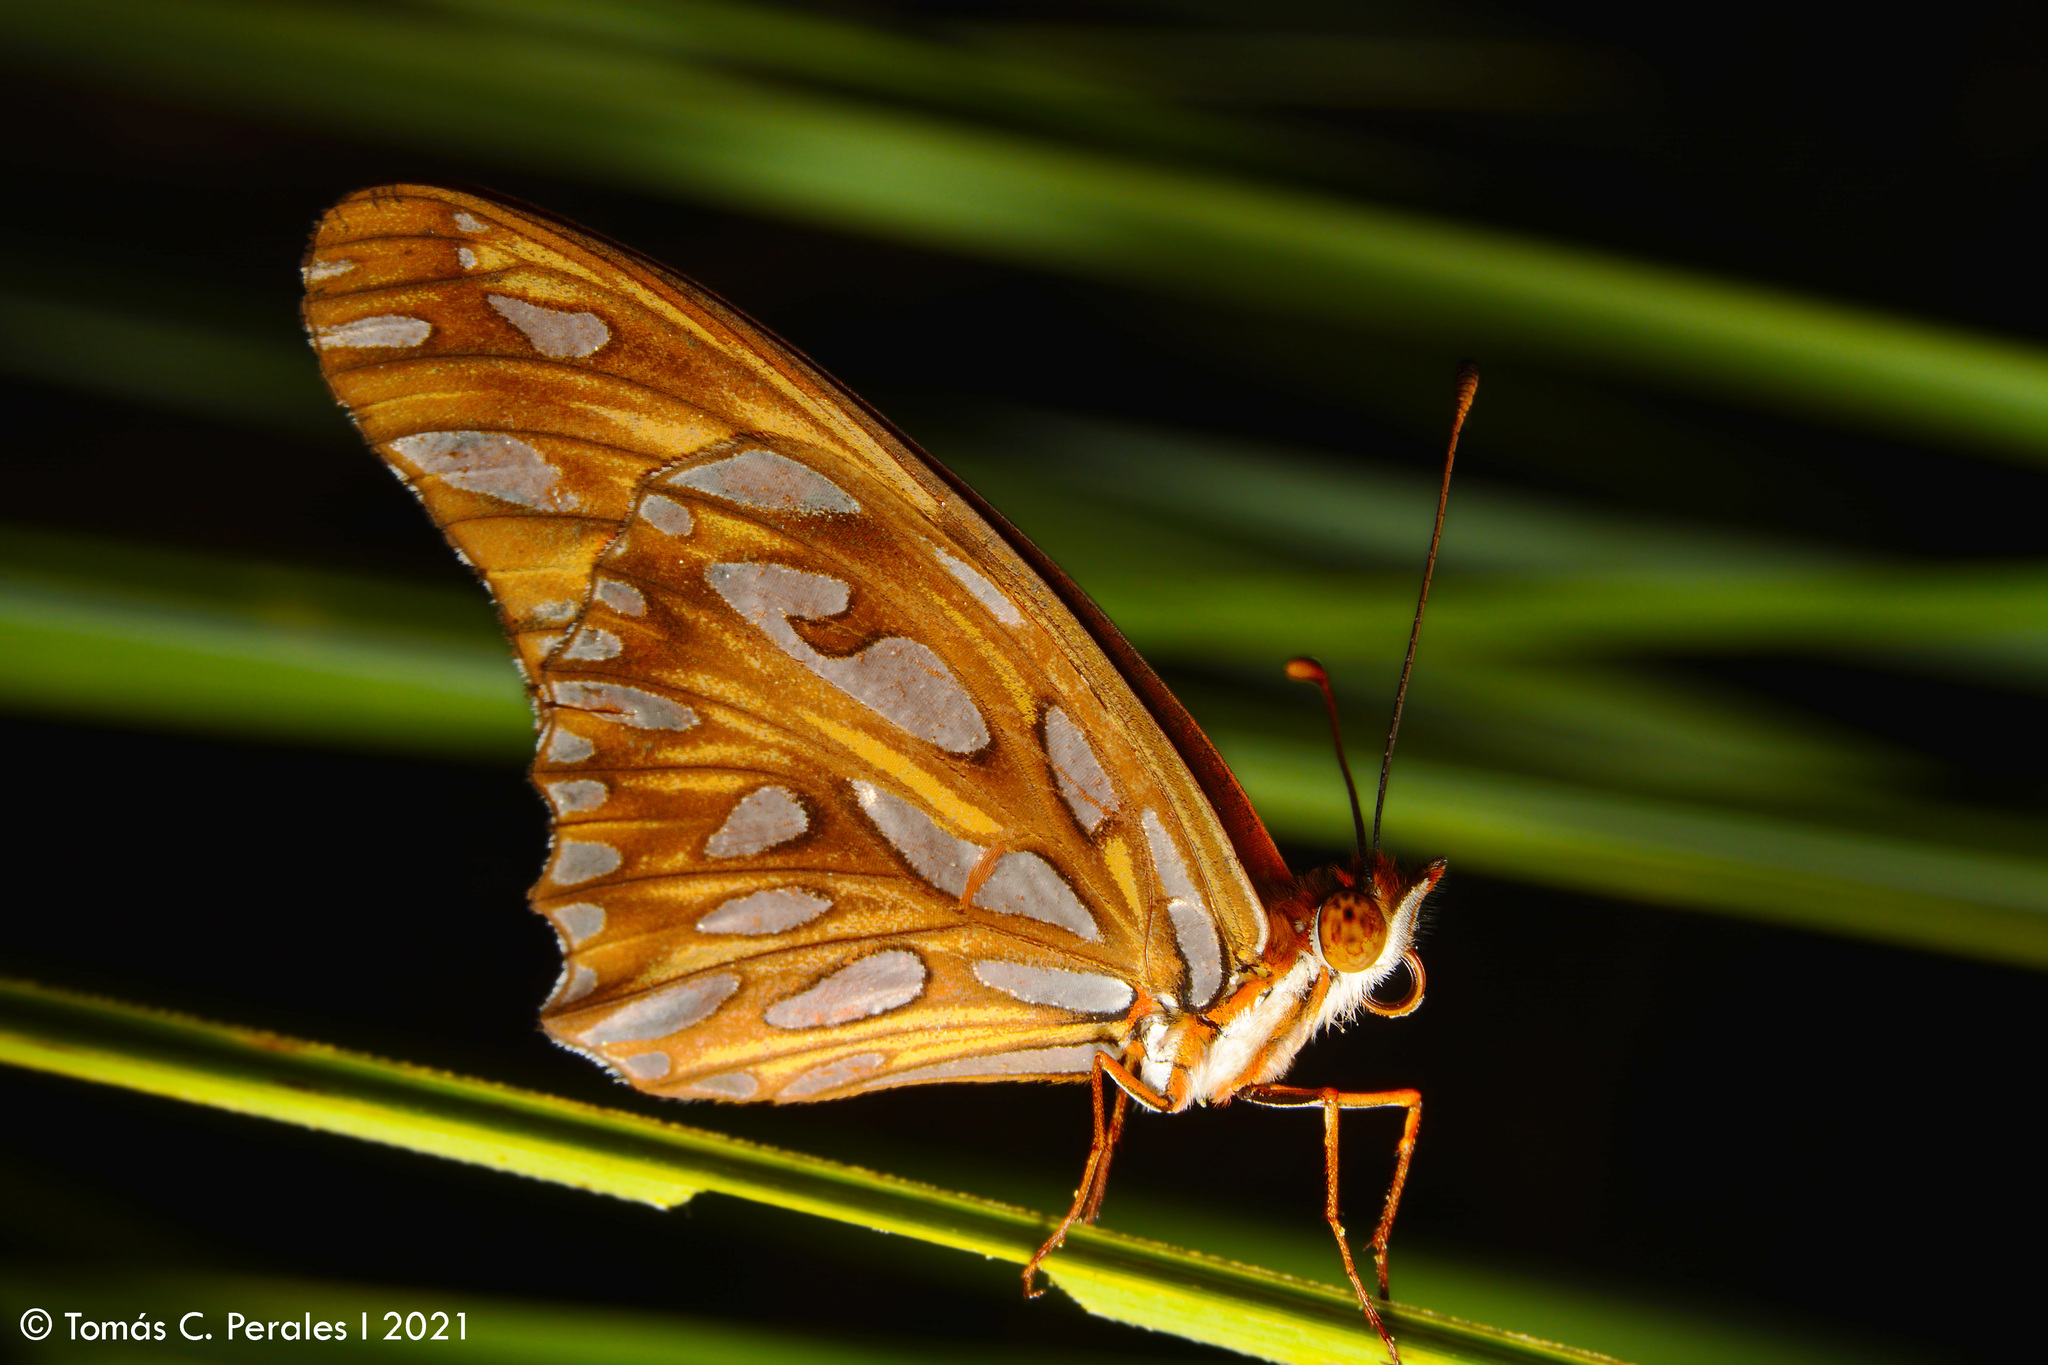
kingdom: Animalia
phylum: Arthropoda
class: Insecta
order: Lepidoptera
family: Nymphalidae
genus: Dione
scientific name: Dione vanillae
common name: Gulf fritillary
